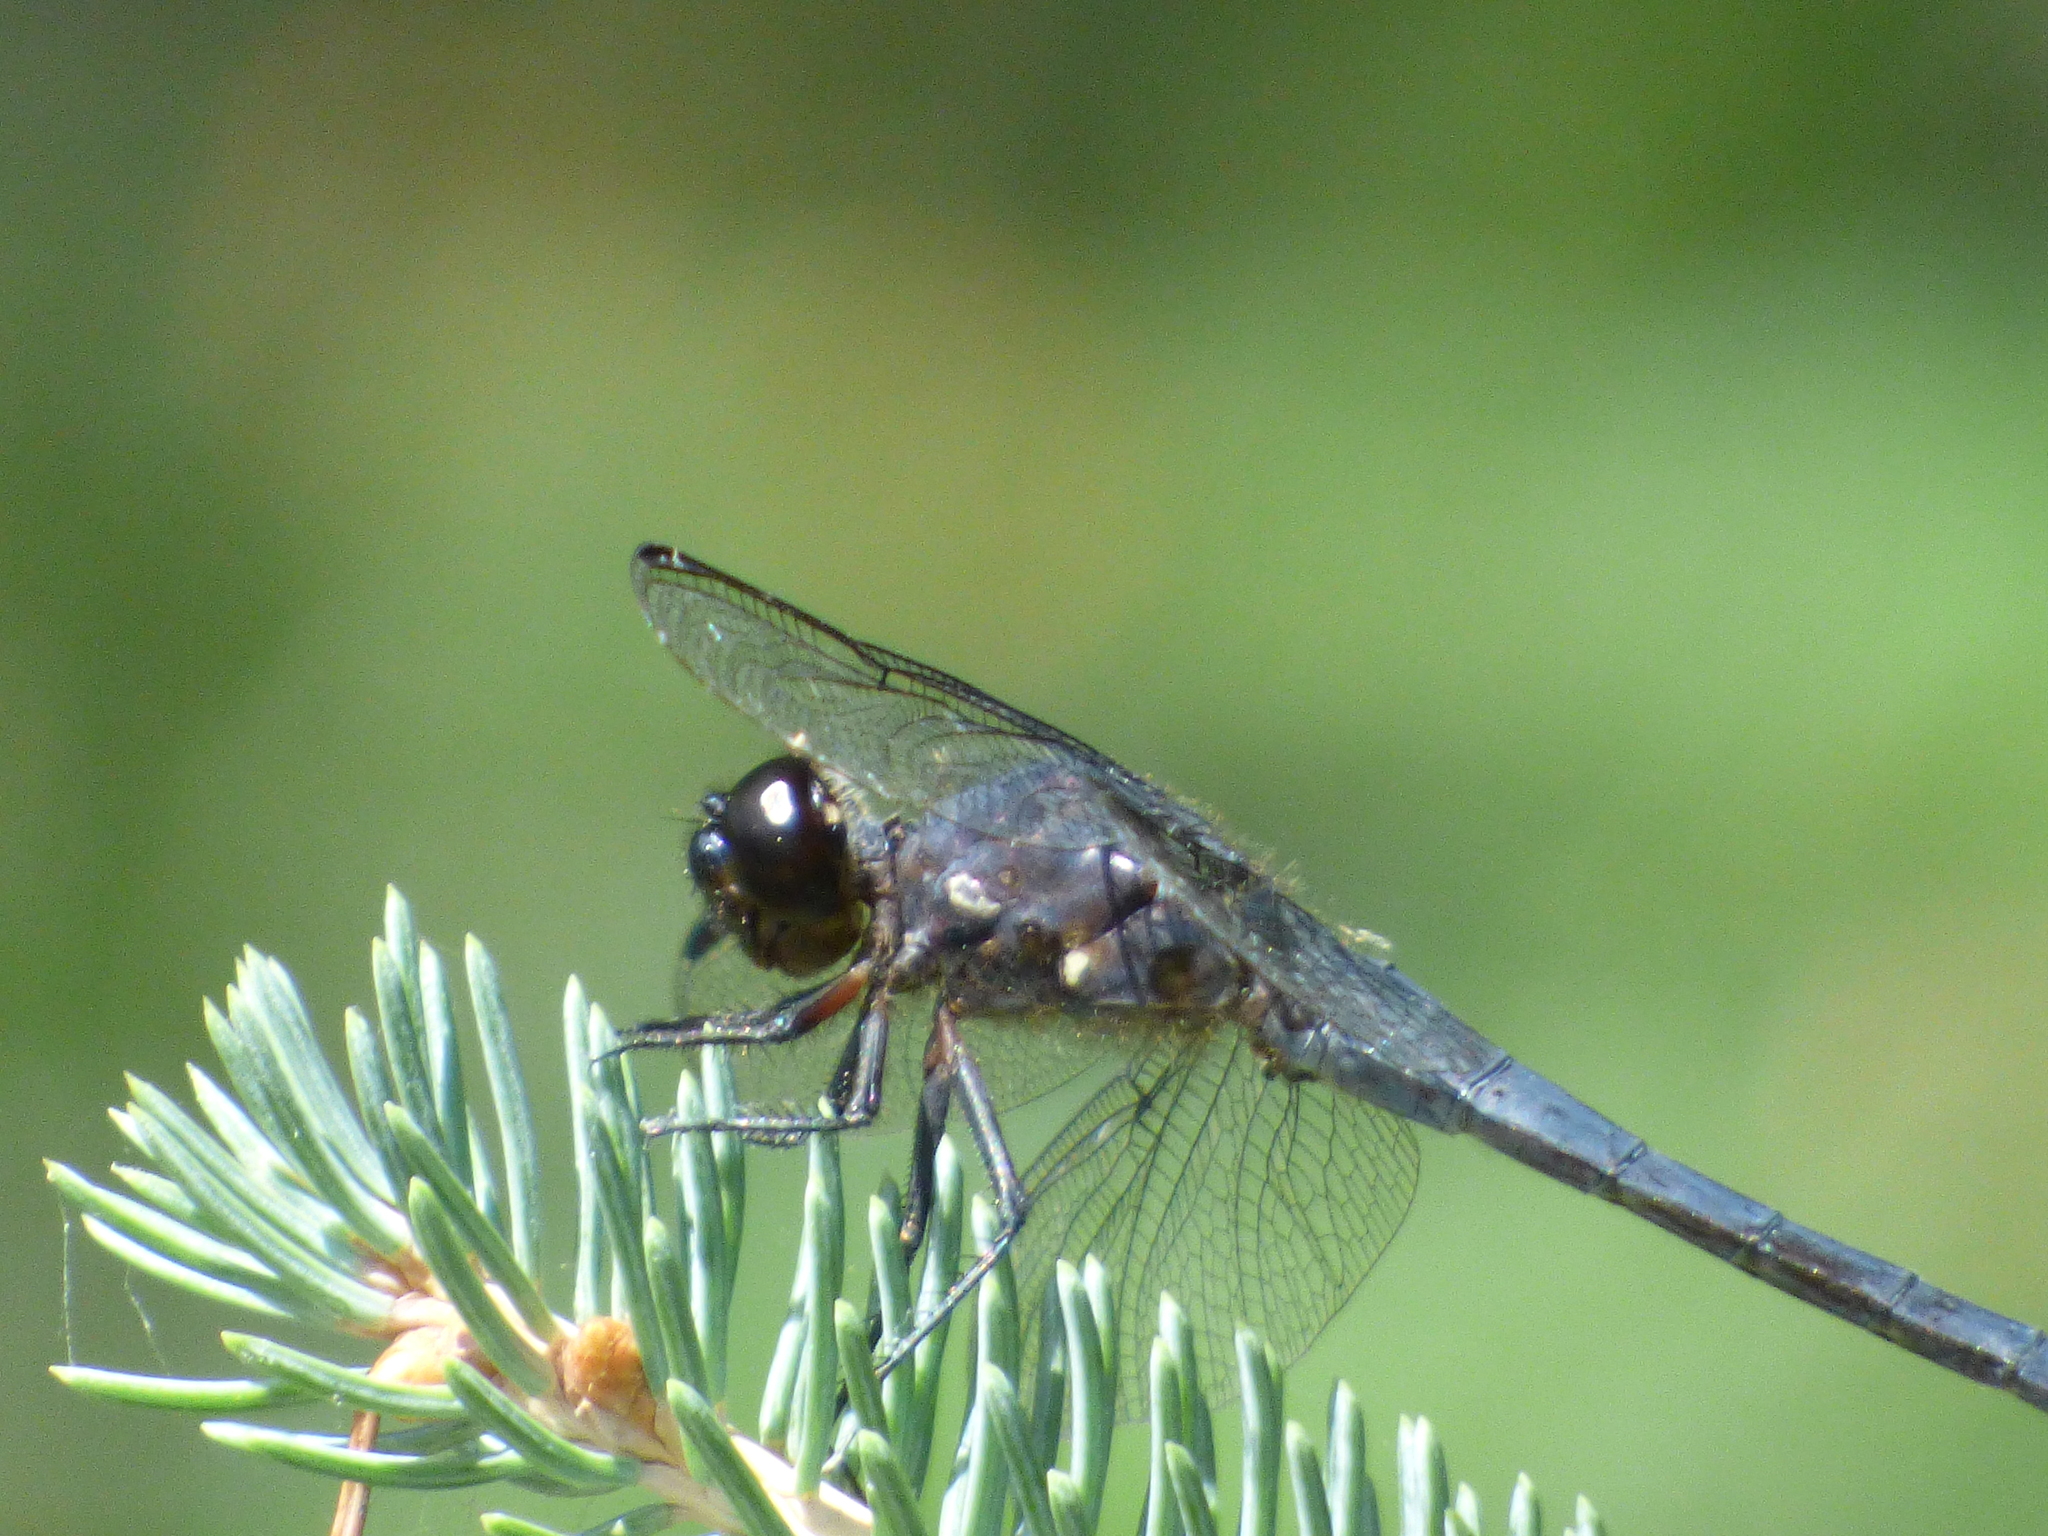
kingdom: Animalia
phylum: Arthropoda
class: Insecta
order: Odonata
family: Libellulidae
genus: Libellula
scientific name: Libellula incesta
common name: Slaty skimmer
